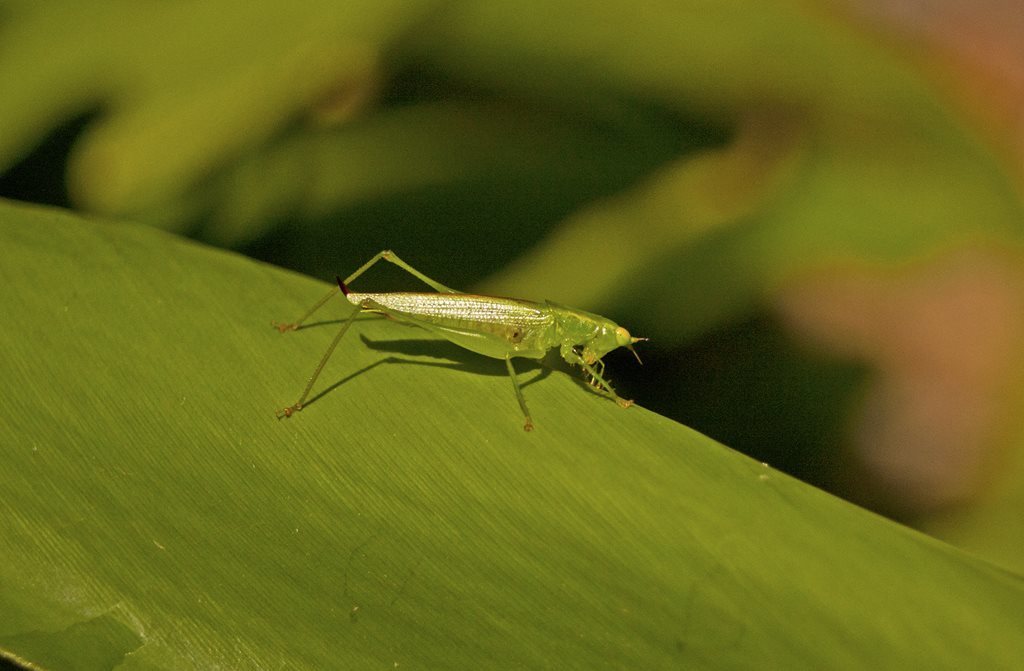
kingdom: Animalia
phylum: Arthropoda
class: Insecta
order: Orthoptera
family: Tettigoniidae
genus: Austrophlugis
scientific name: Austrophlugis debaari
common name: Debaar's swayer
